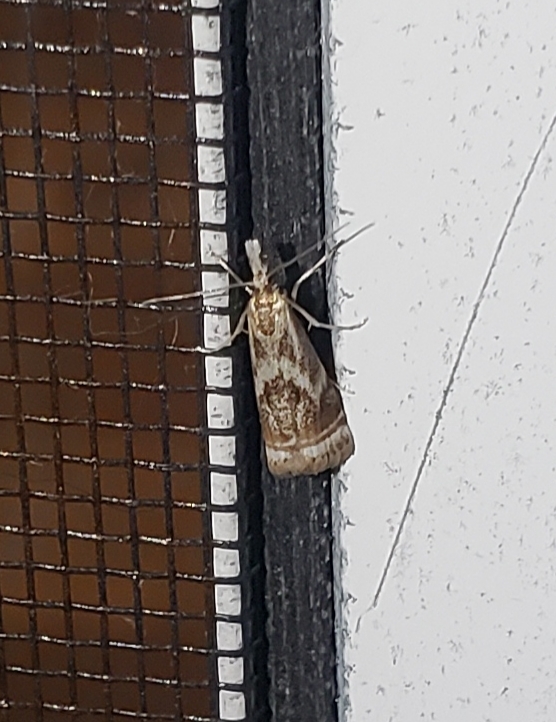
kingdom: Animalia
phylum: Arthropoda
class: Insecta
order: Lepidoptera
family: Crambidae
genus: Microcrambus
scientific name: Microcrambus elegans
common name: Elegant grass-veneer
